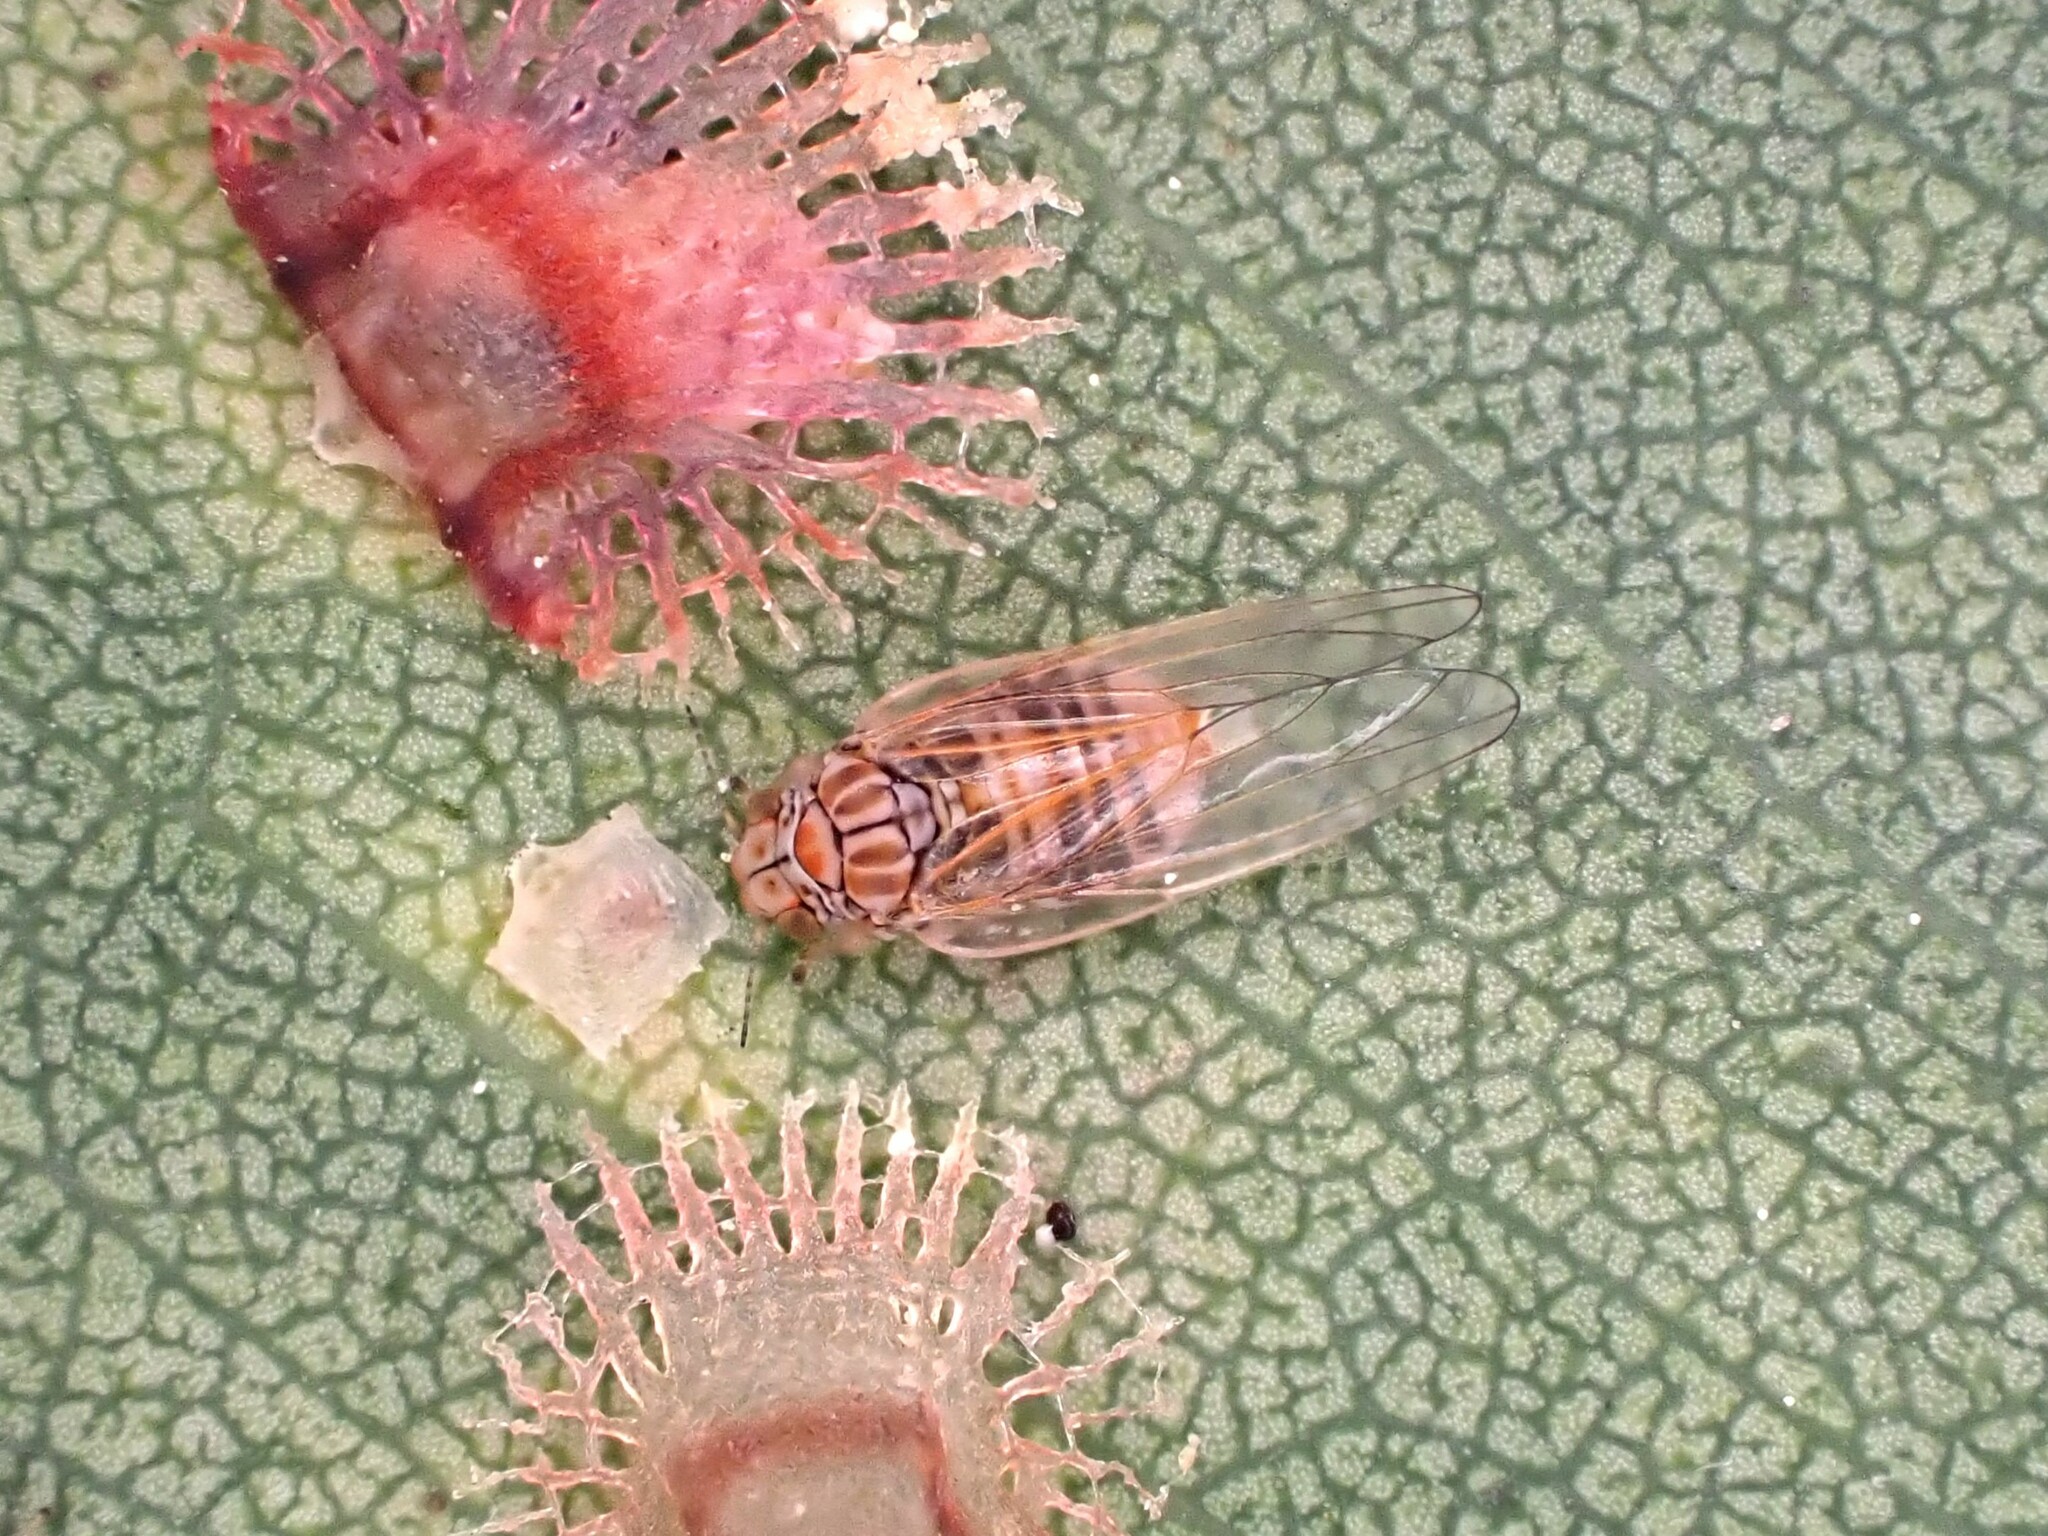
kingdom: Animalia
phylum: Arthropoda
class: Insecta
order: Hemiptera
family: Aphalaridae
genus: Cardiaspina
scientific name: Cardiaspina fiscella
